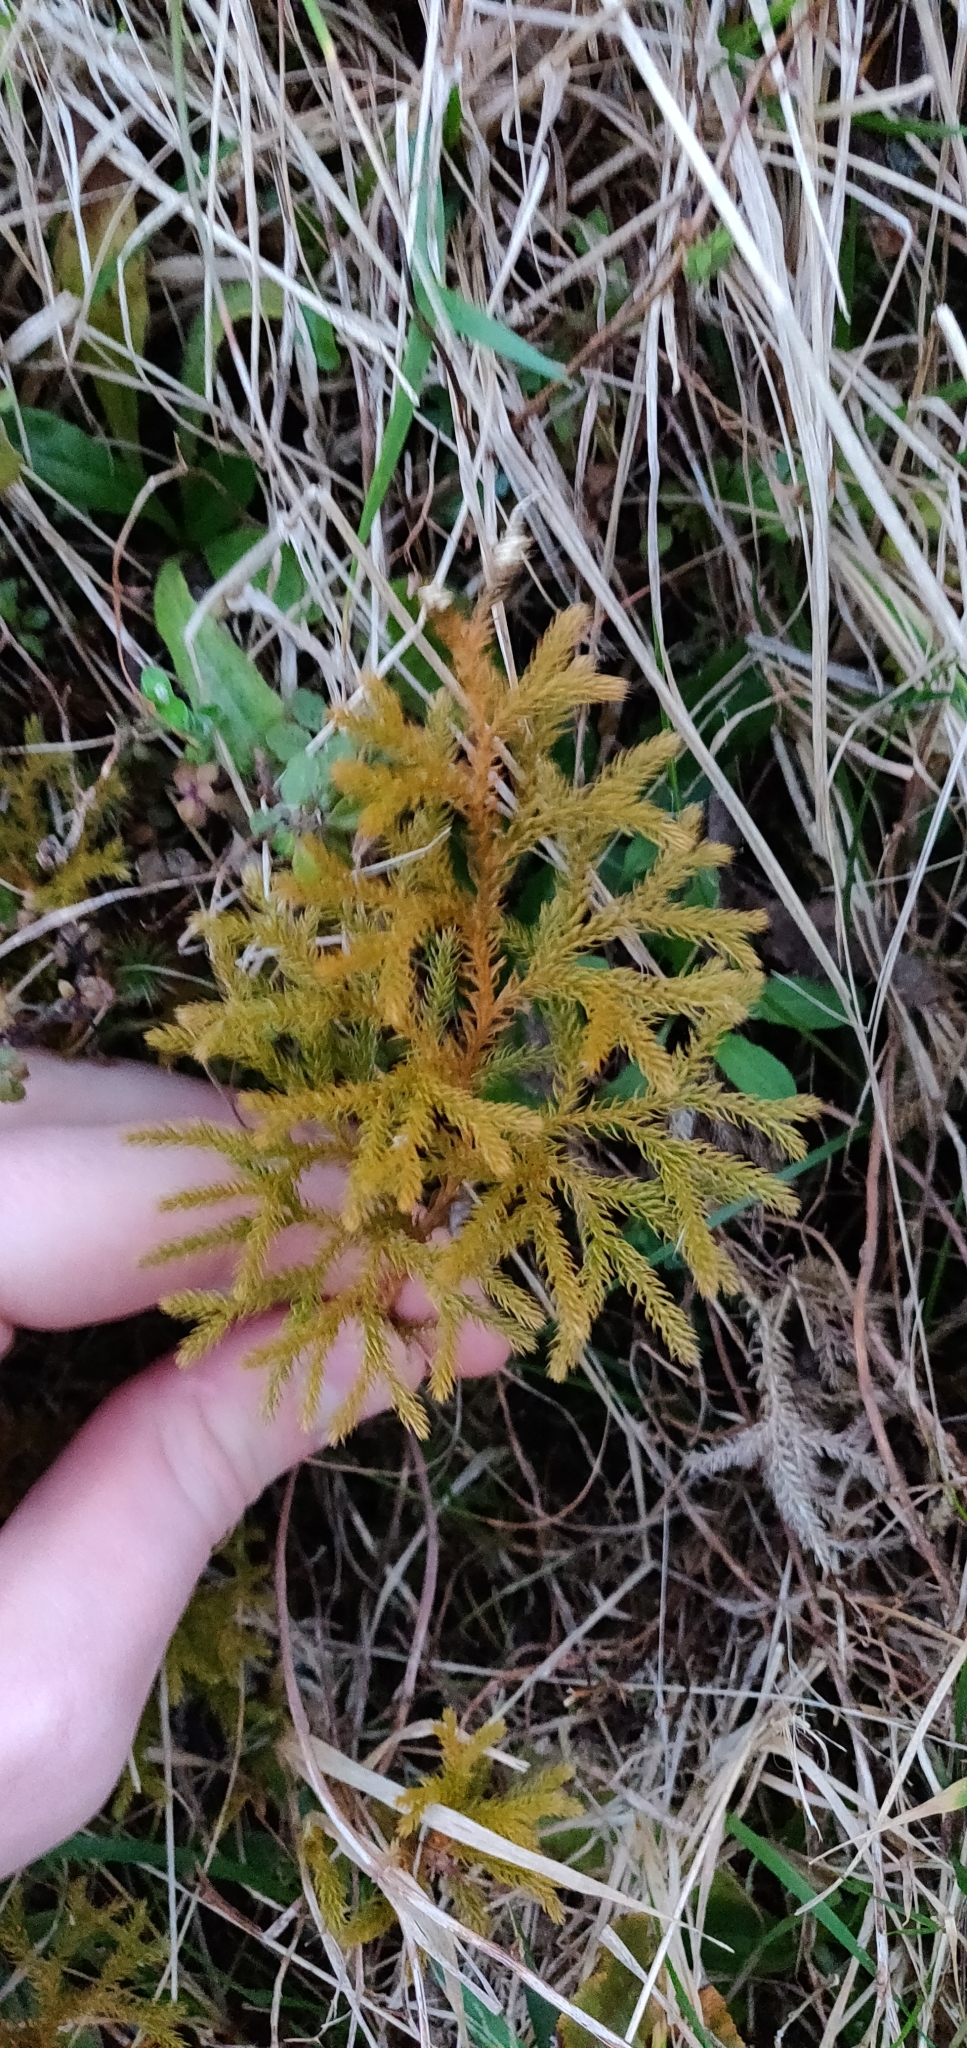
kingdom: Plantae
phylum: Tracheophyta
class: Lycopodiopsida
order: Lycopodiales
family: Lycopodiaceae
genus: Austrolycopodium
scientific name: Austrolycopodium fastigiatum
